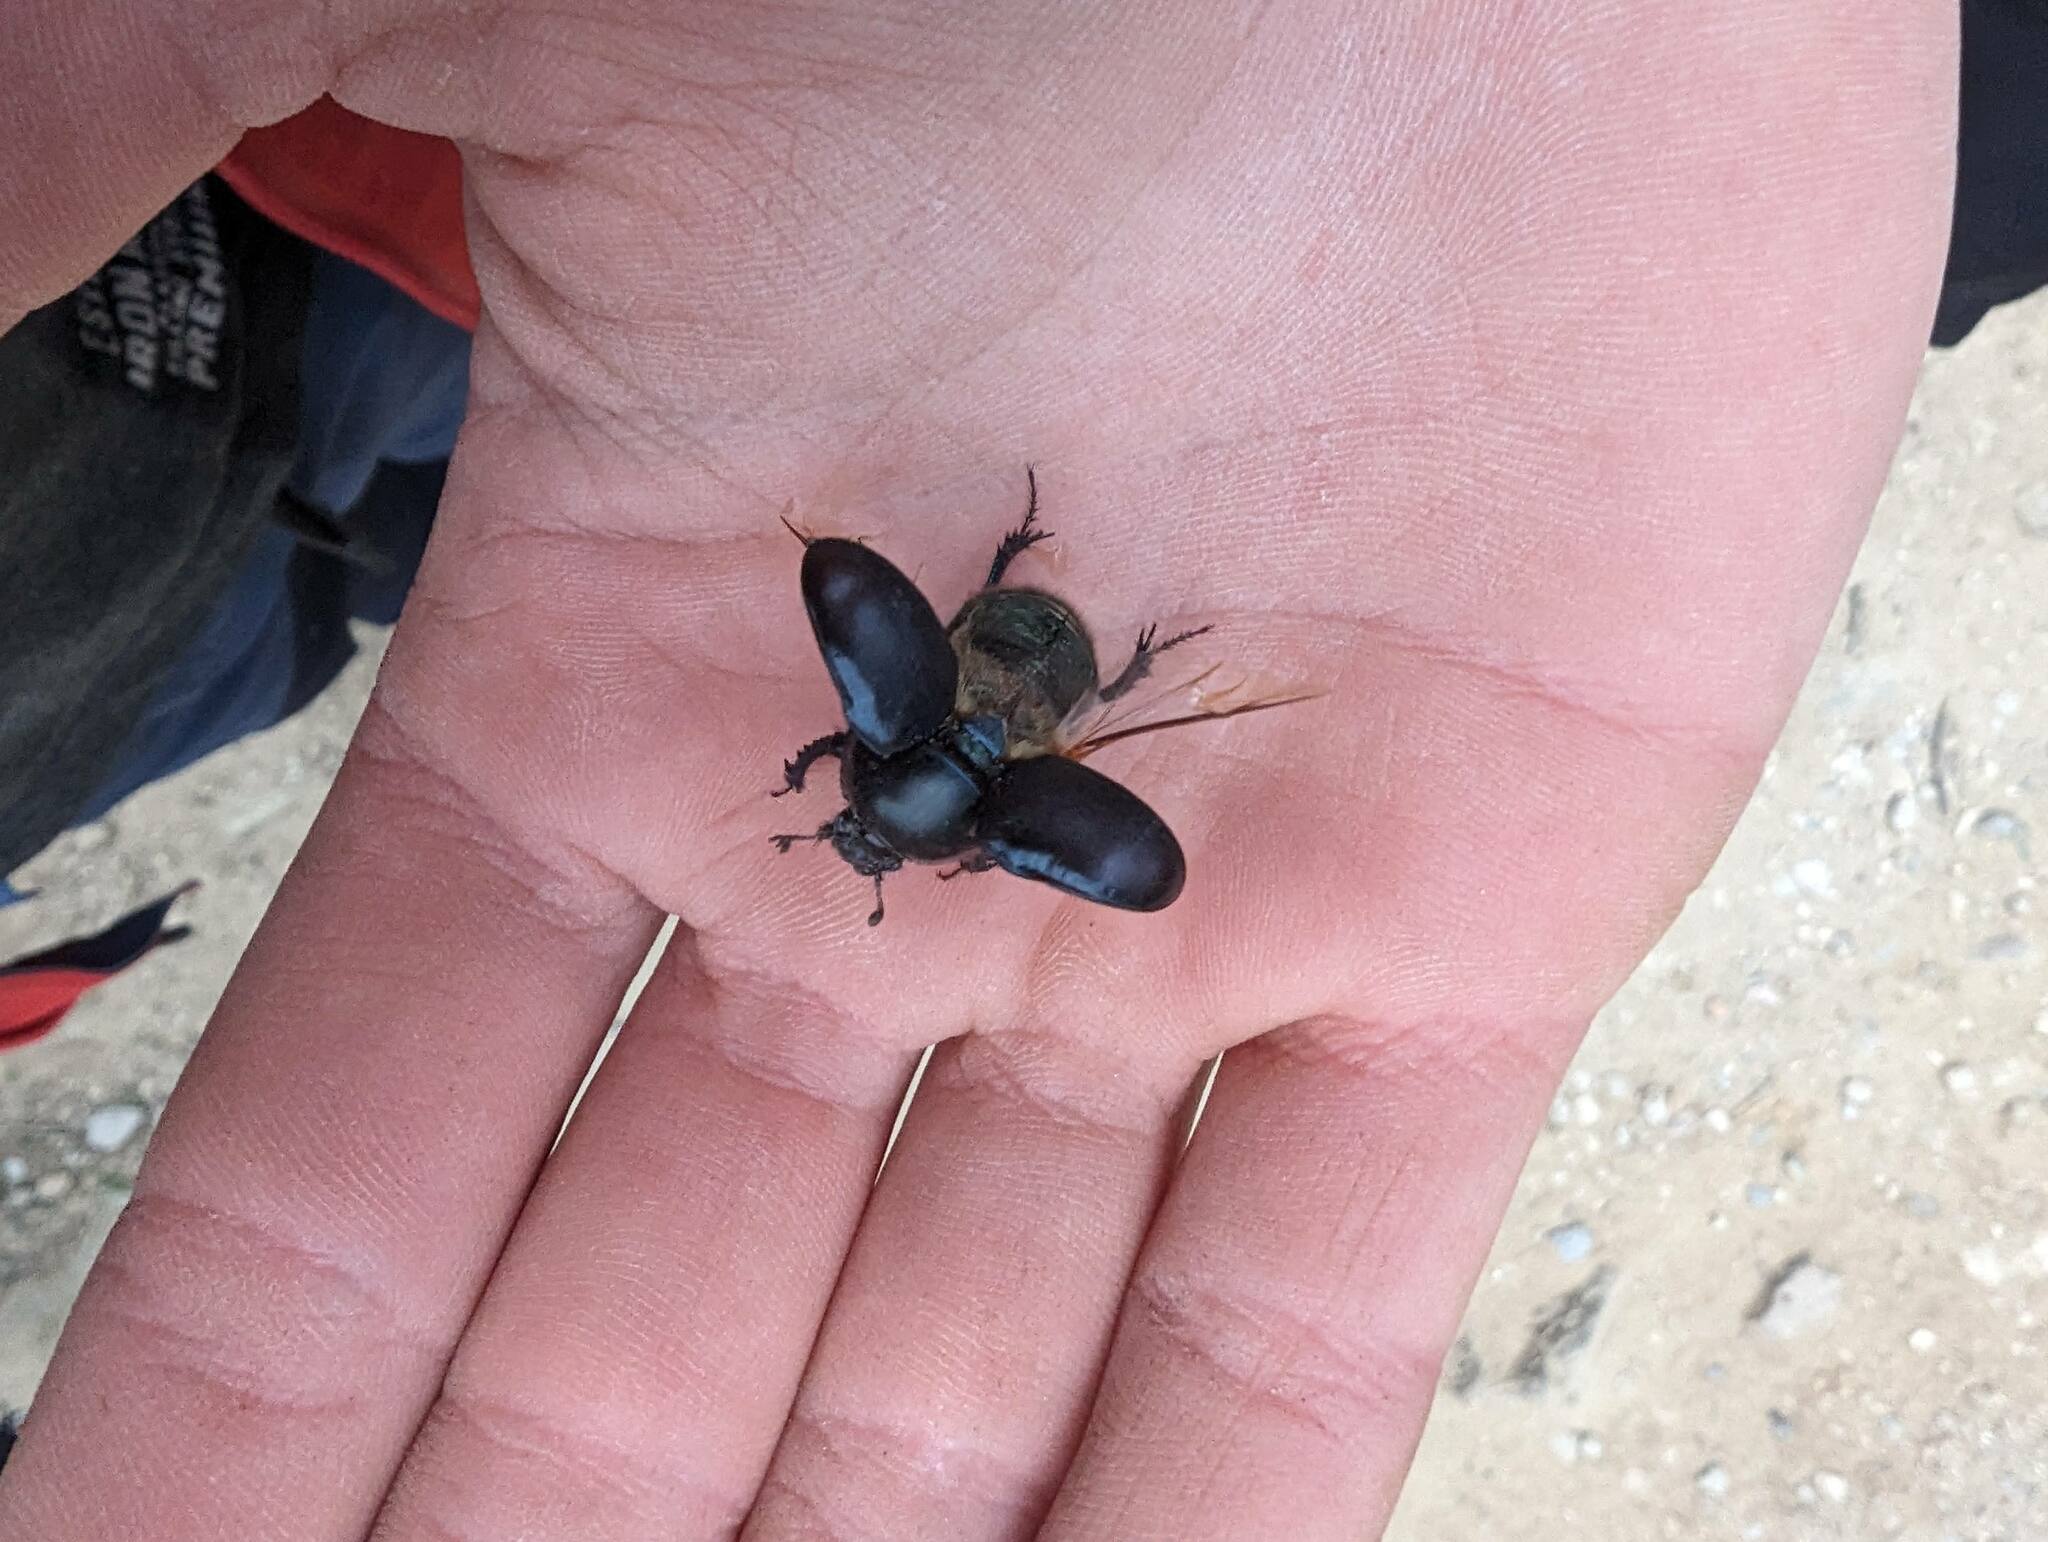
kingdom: Animalia
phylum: Arthropoda
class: Insecta
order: Coleoptera
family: Geotrupidae
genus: Sericotrupes
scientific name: Sericotrupes niger
